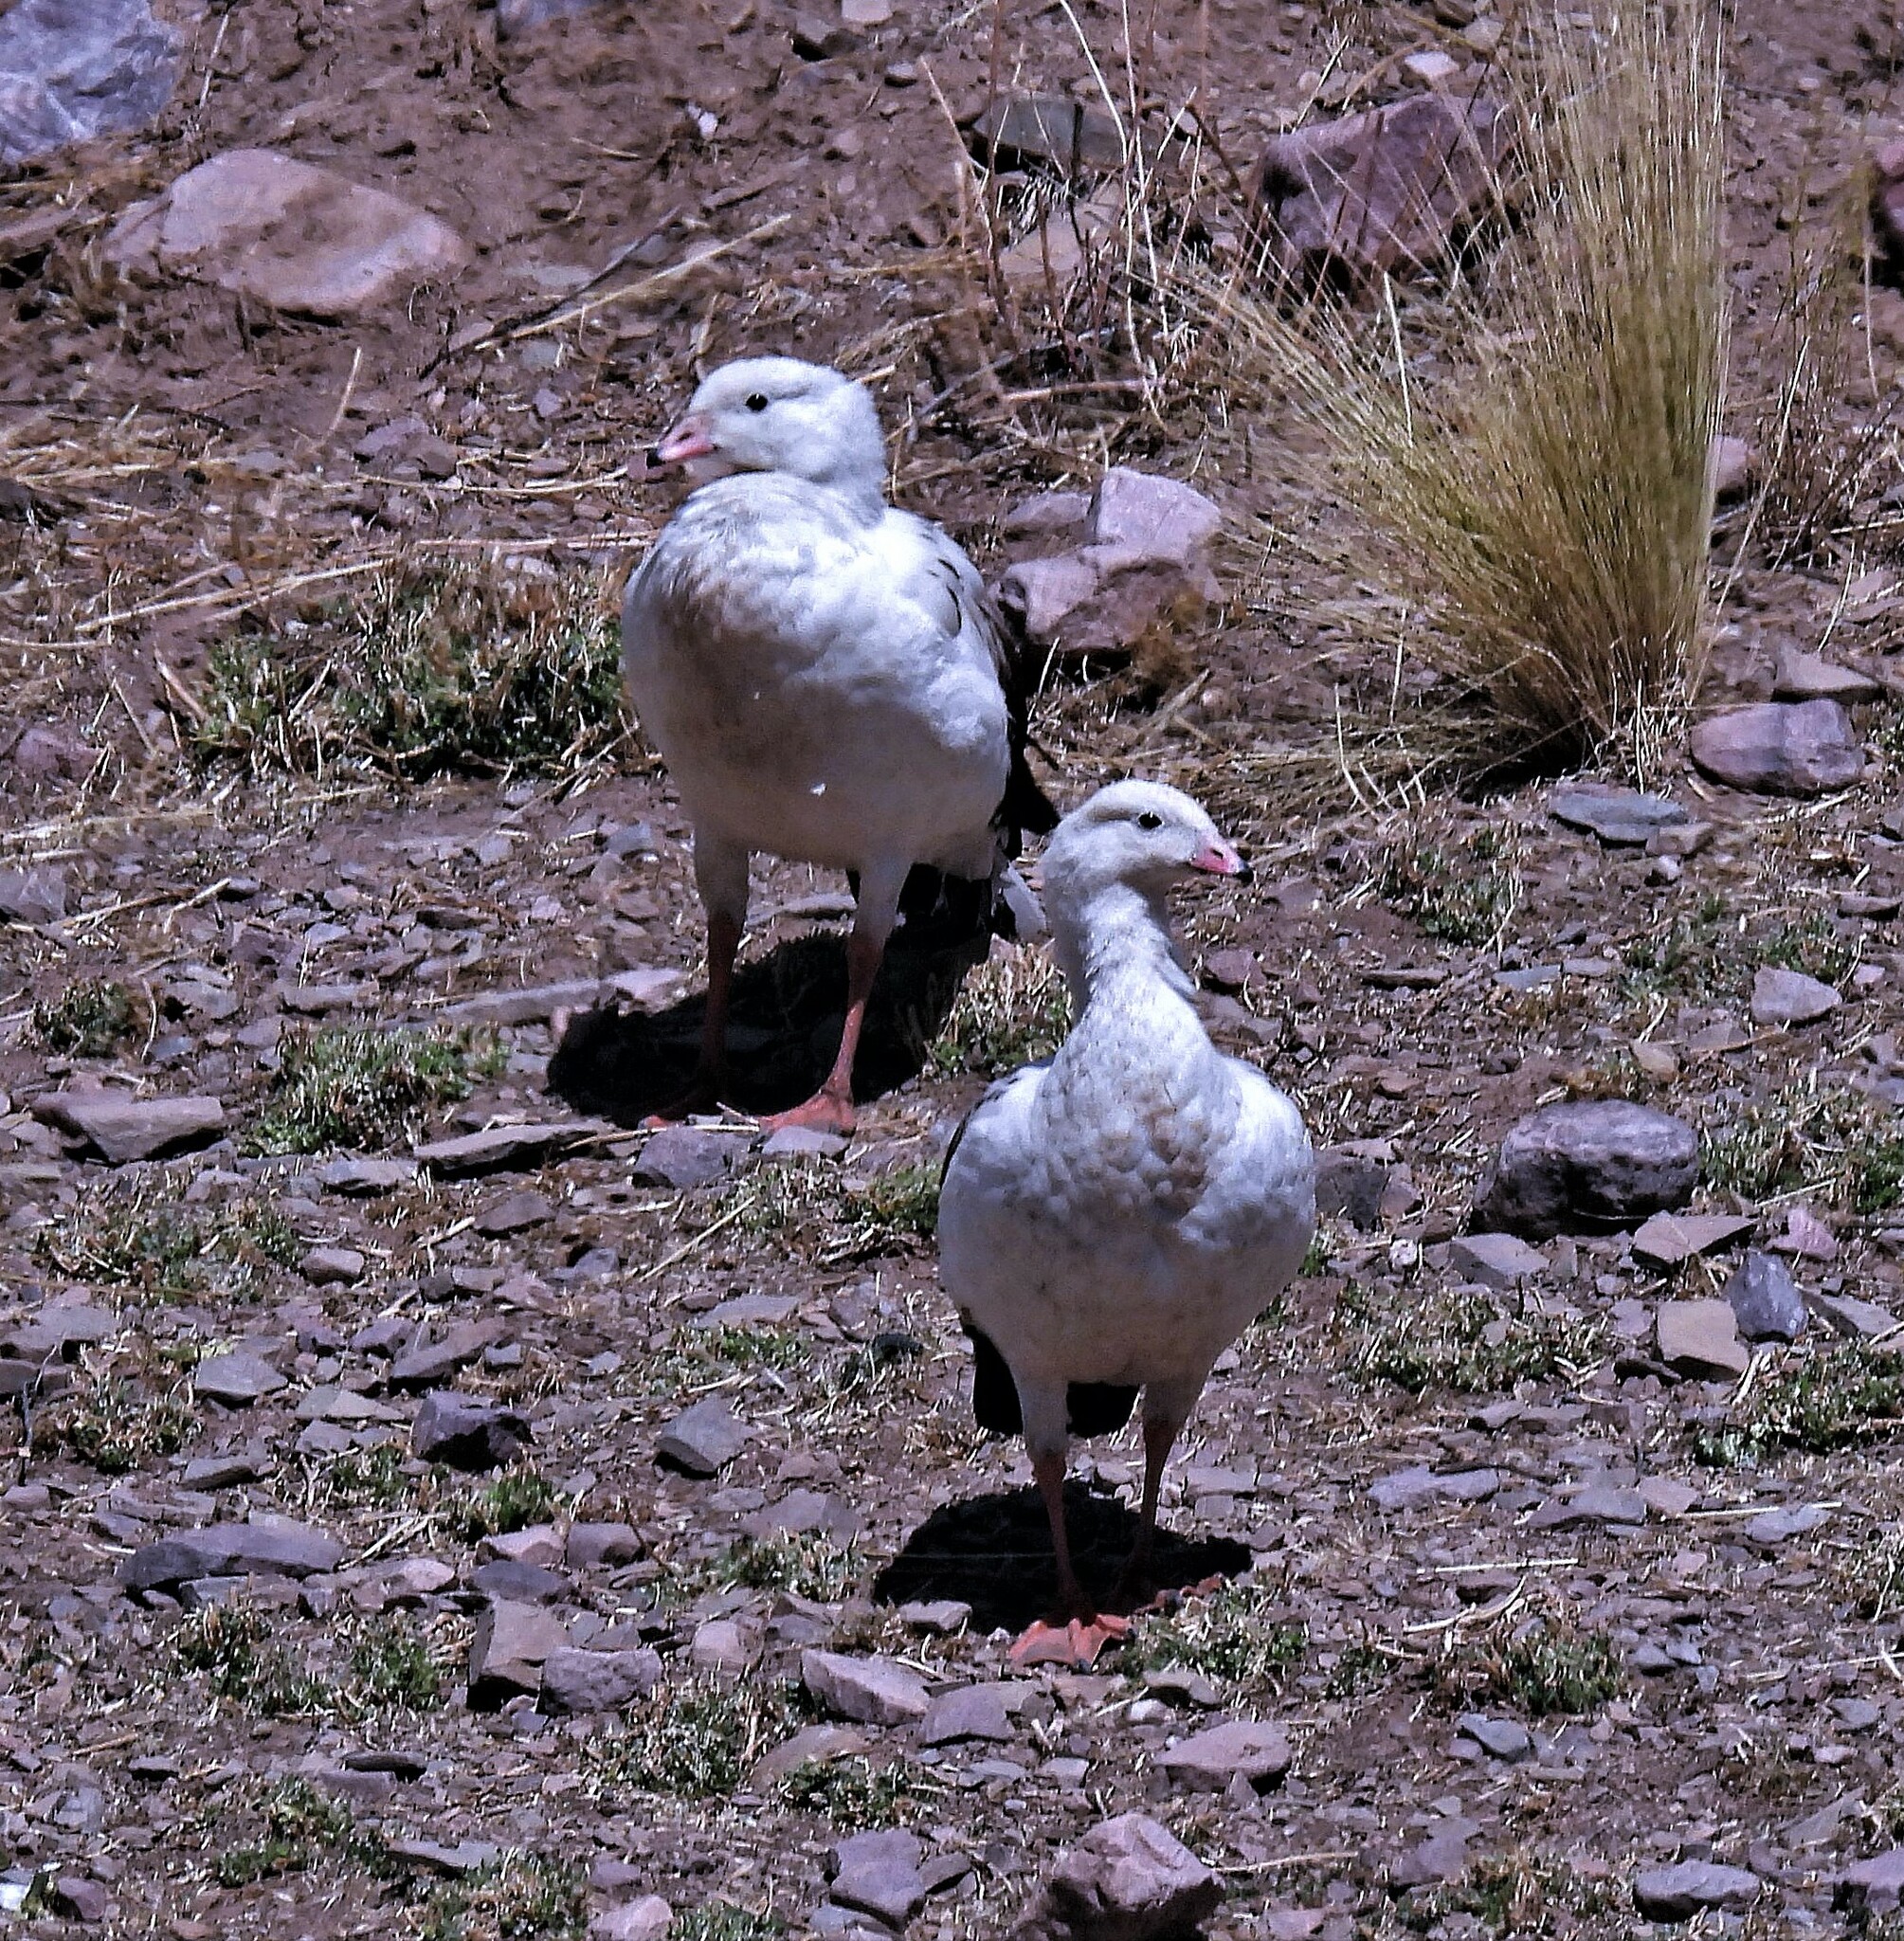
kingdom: Animalia
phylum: Chordata
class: Aves
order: Anseriformes
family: Anatidae
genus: Chloephaga
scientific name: Chloephaga melanoptera
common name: Andean goose
